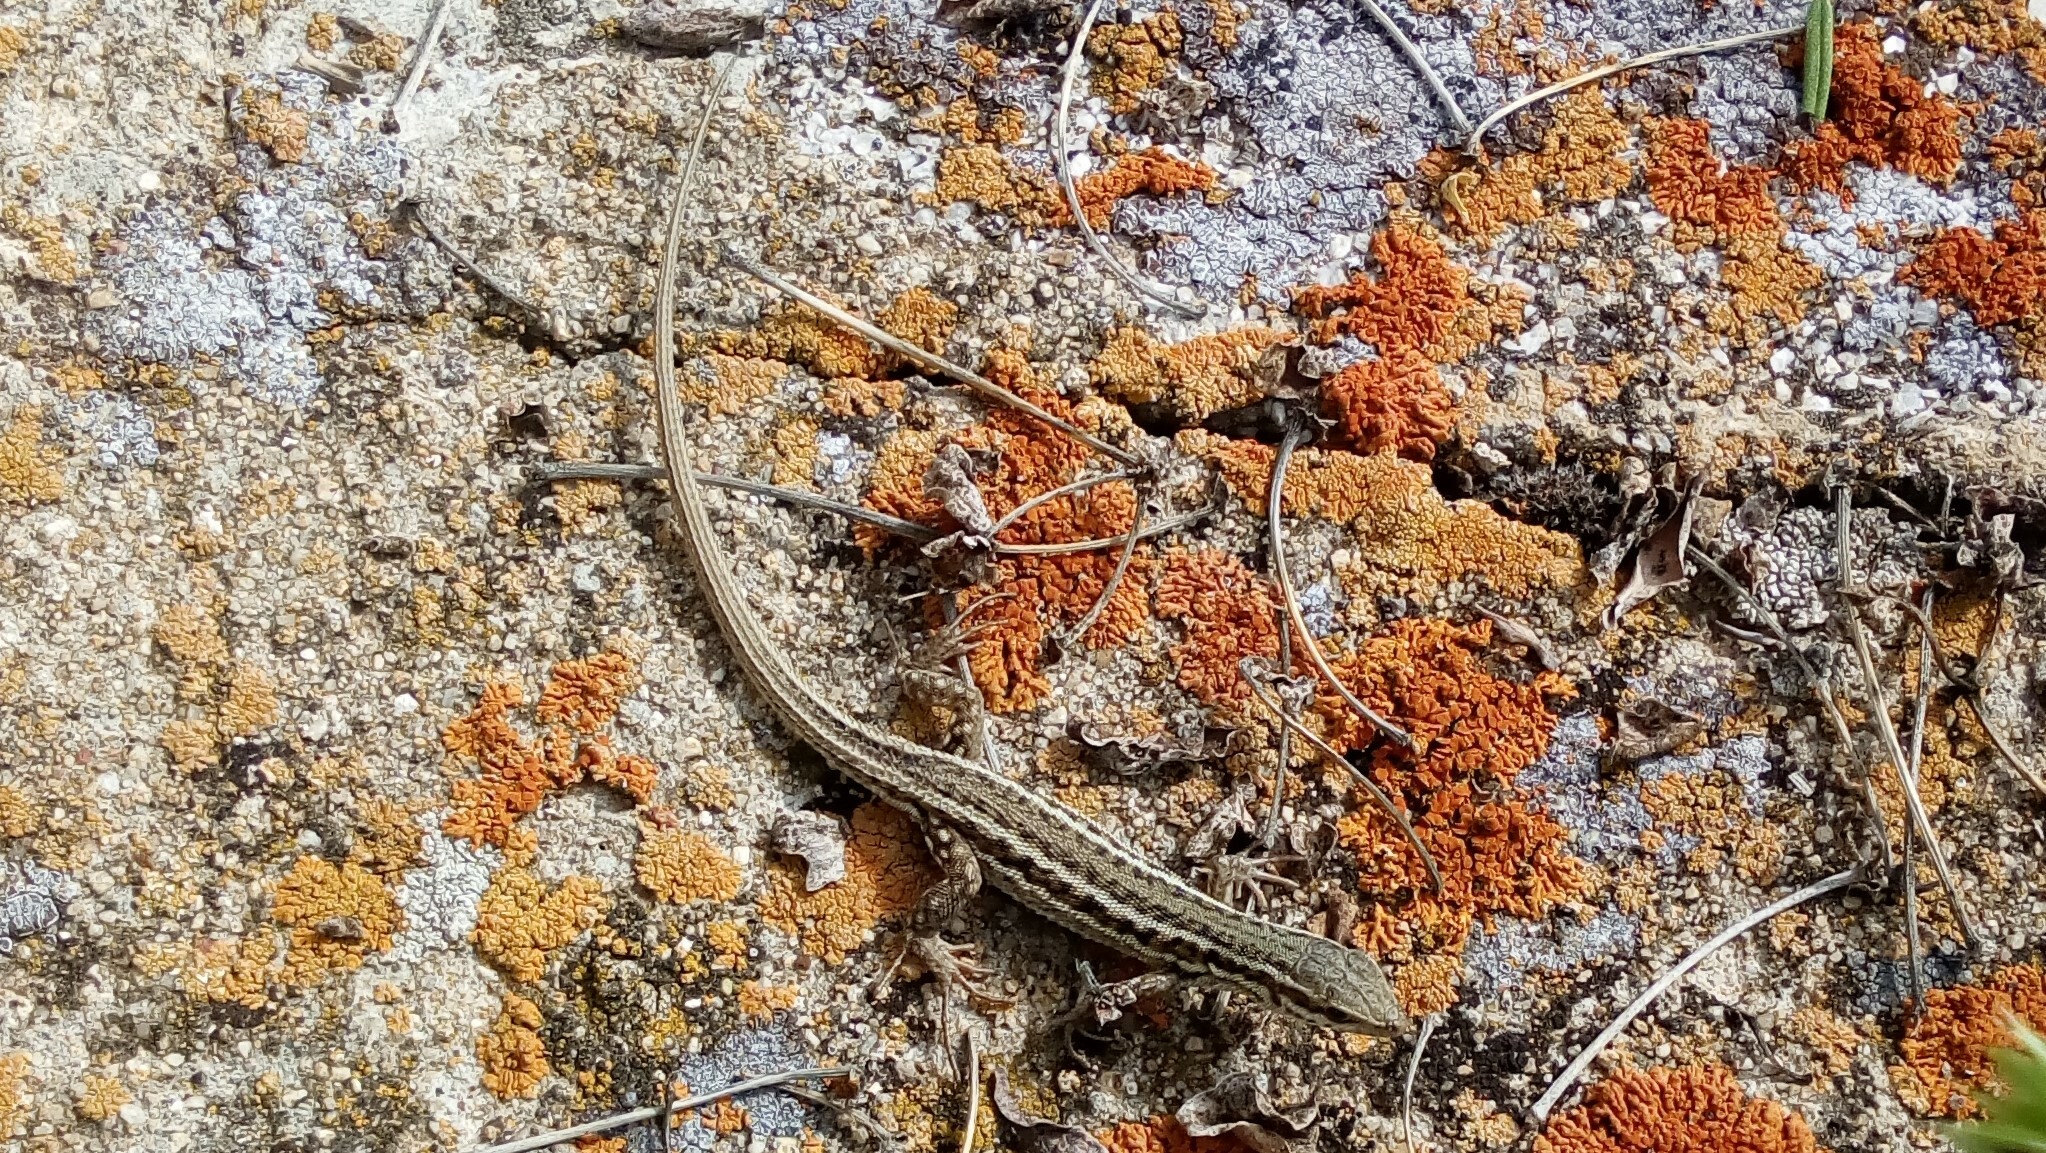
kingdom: Animalia
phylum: Chordata
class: Squamata
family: Lacertidae
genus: Ophisops
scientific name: Ophisops elegans
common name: Snake-eyed lizard
